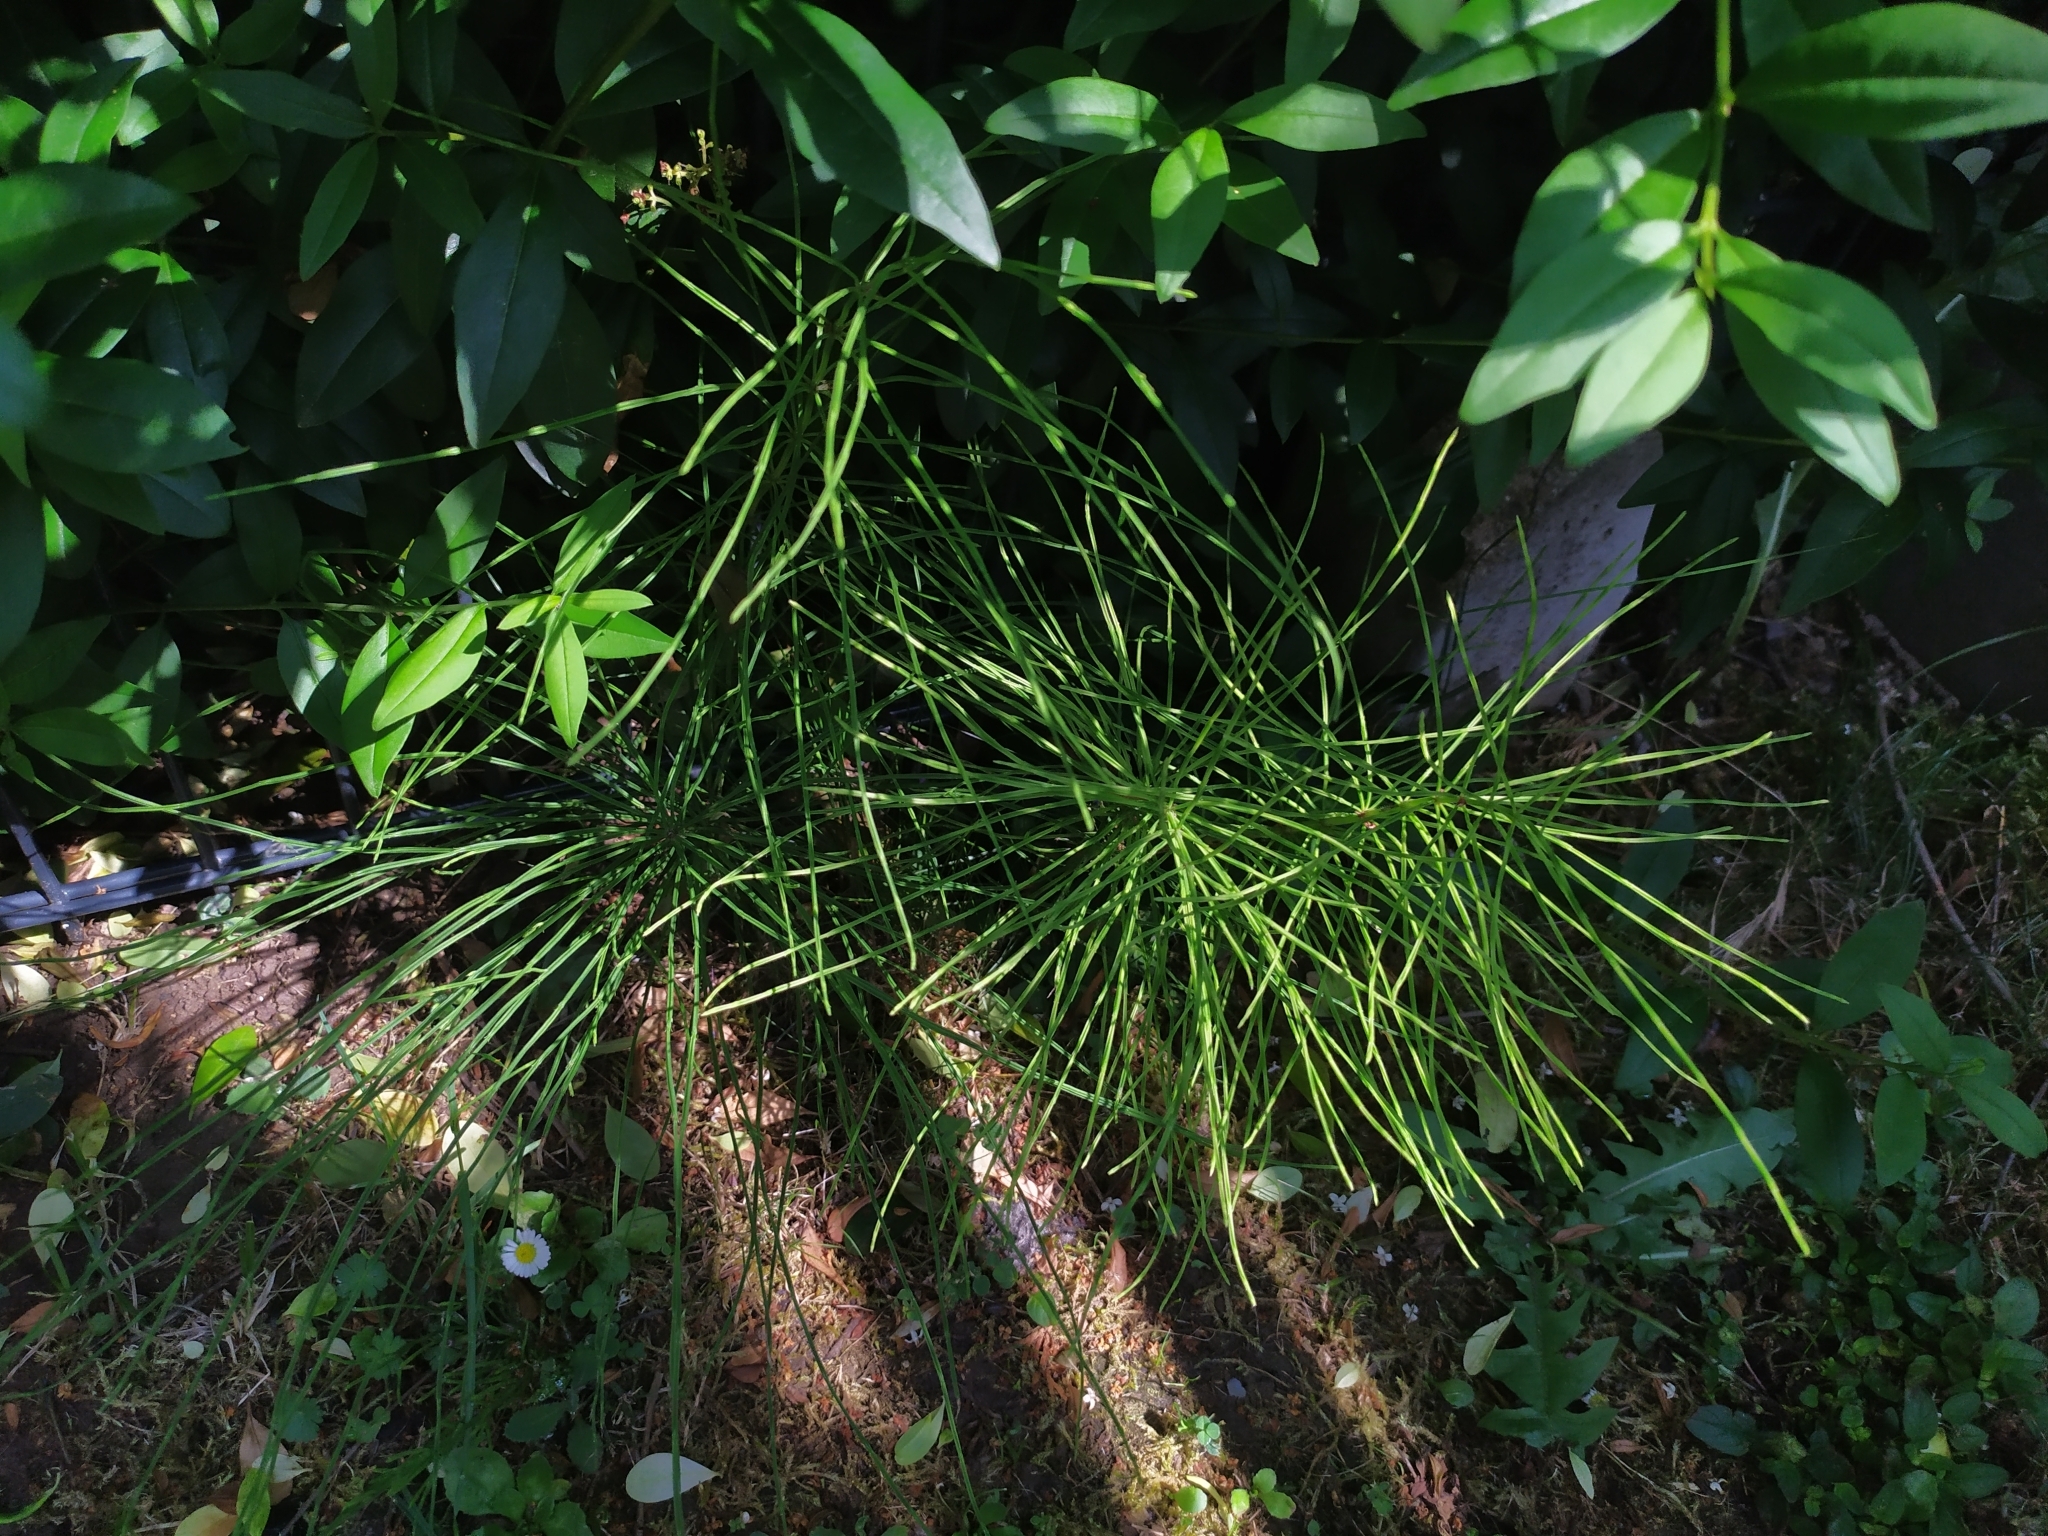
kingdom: Plantae
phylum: Tracheophyta
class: Polypodiopsida
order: Equisetales
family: Equisetaceae
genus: Equisetum
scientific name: Equisetum arvense
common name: Field horsetail
